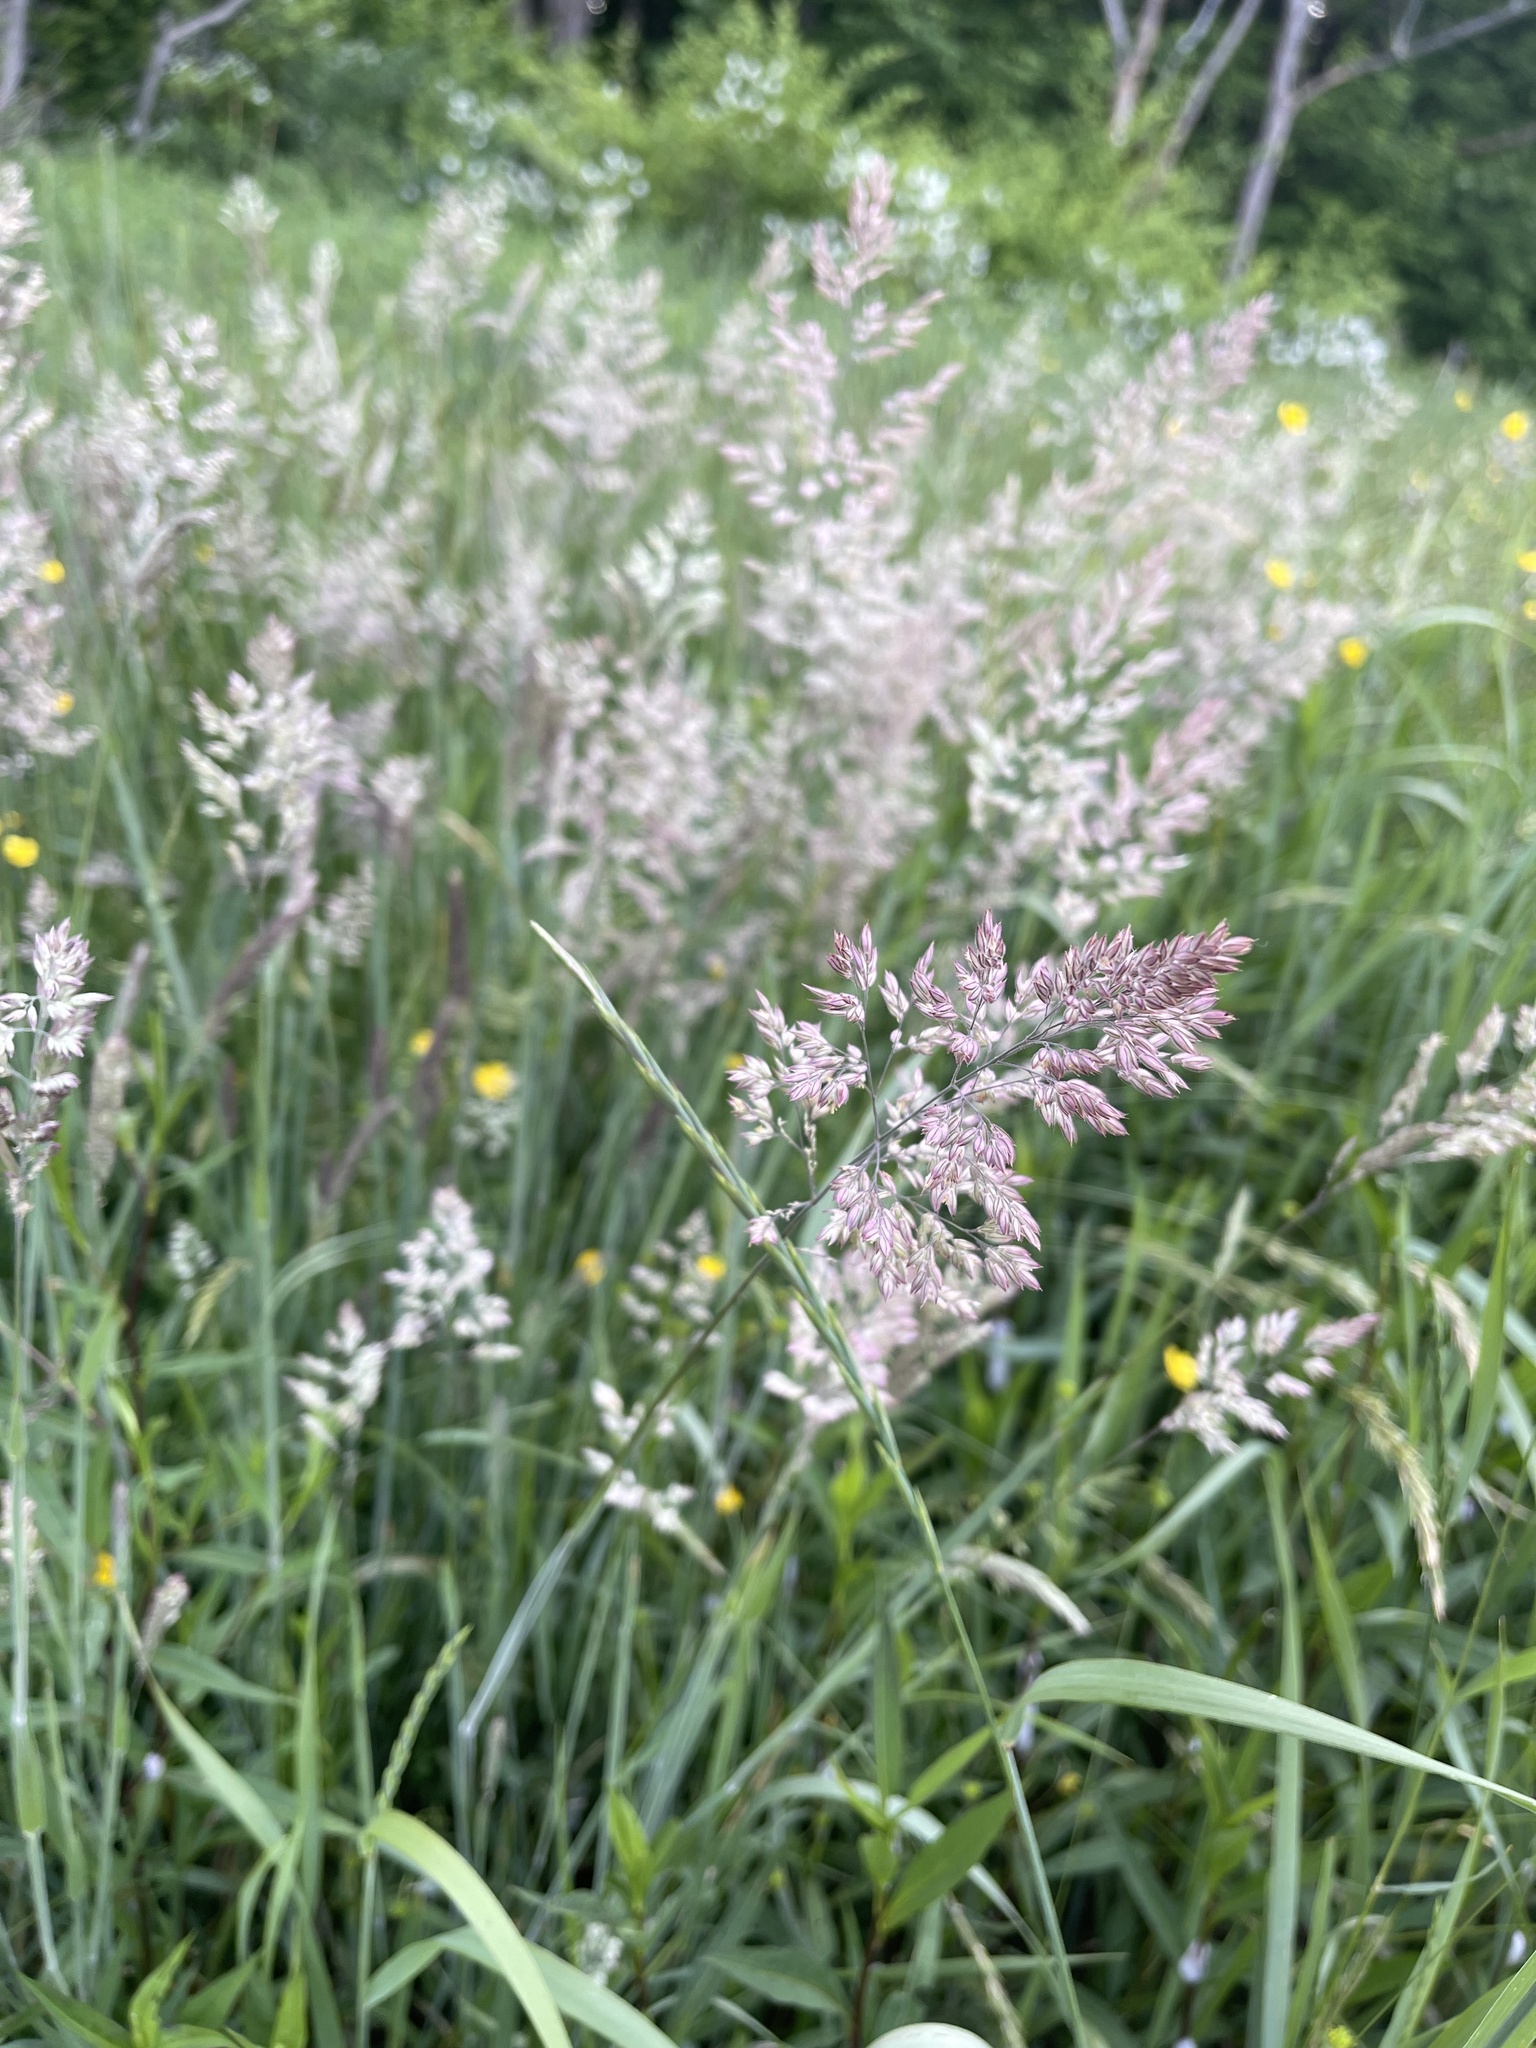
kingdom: Plantae
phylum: Tracheophyta
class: Liliopsida
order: Poales
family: Poaceae
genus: Holcus
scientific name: Holcus lanatus
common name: Yorkshire-fog
